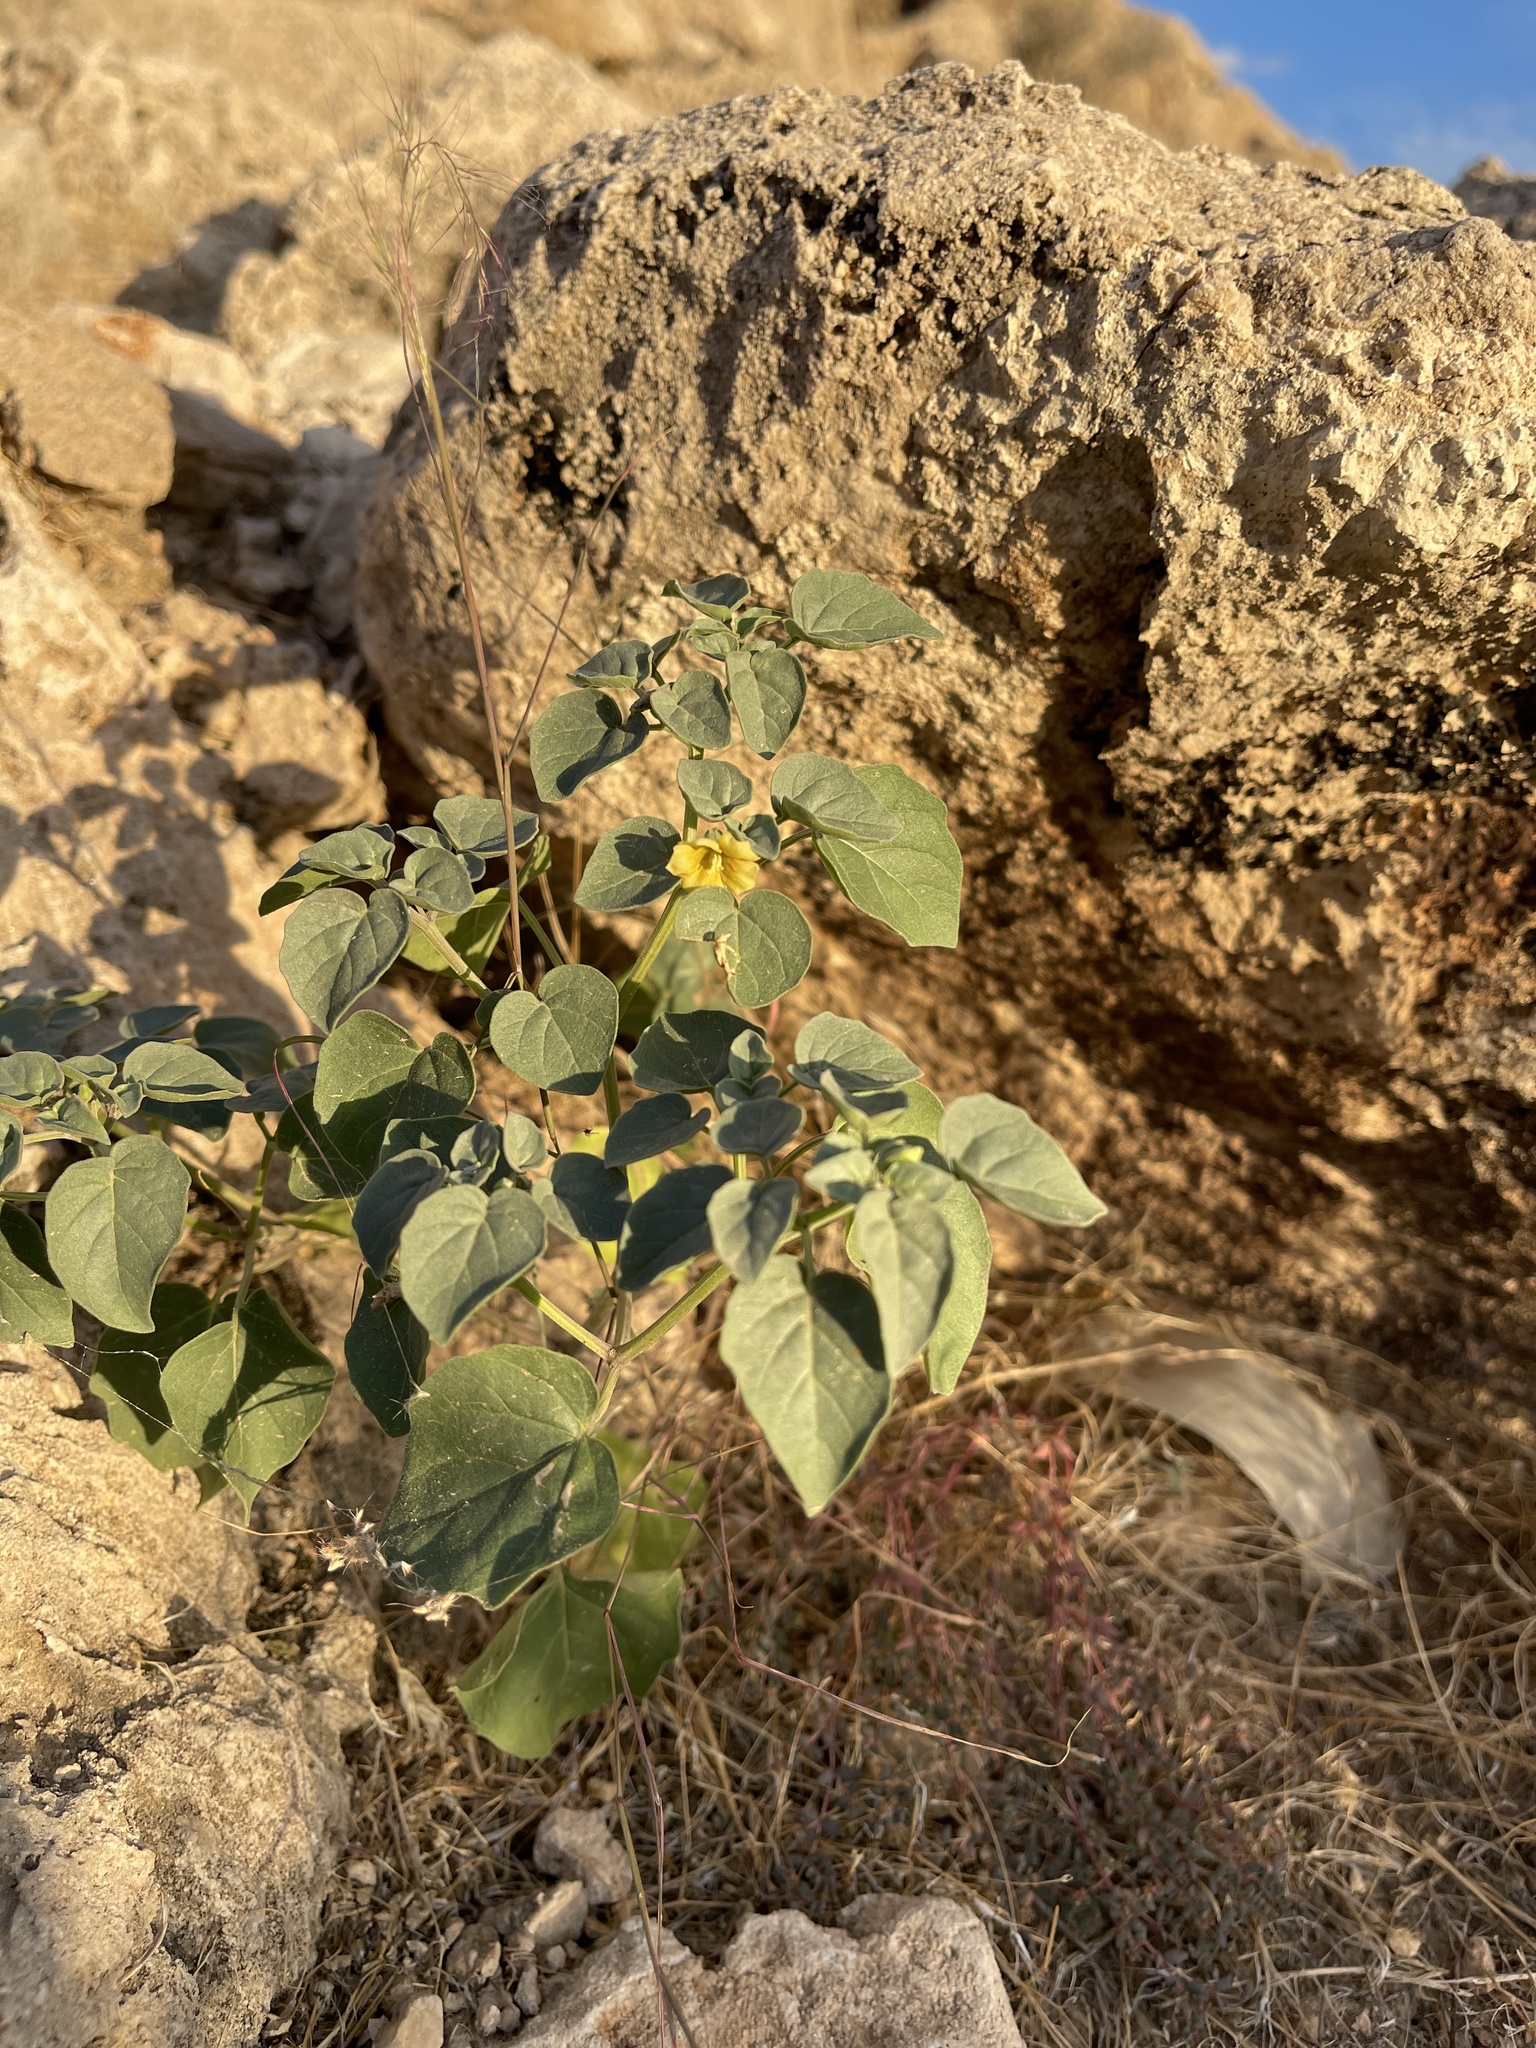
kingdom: Plantae
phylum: Tracheophyta
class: Magnoliopsida
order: Solanales
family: Solanaceae
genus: Physalis
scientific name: Physalis crassifolia
